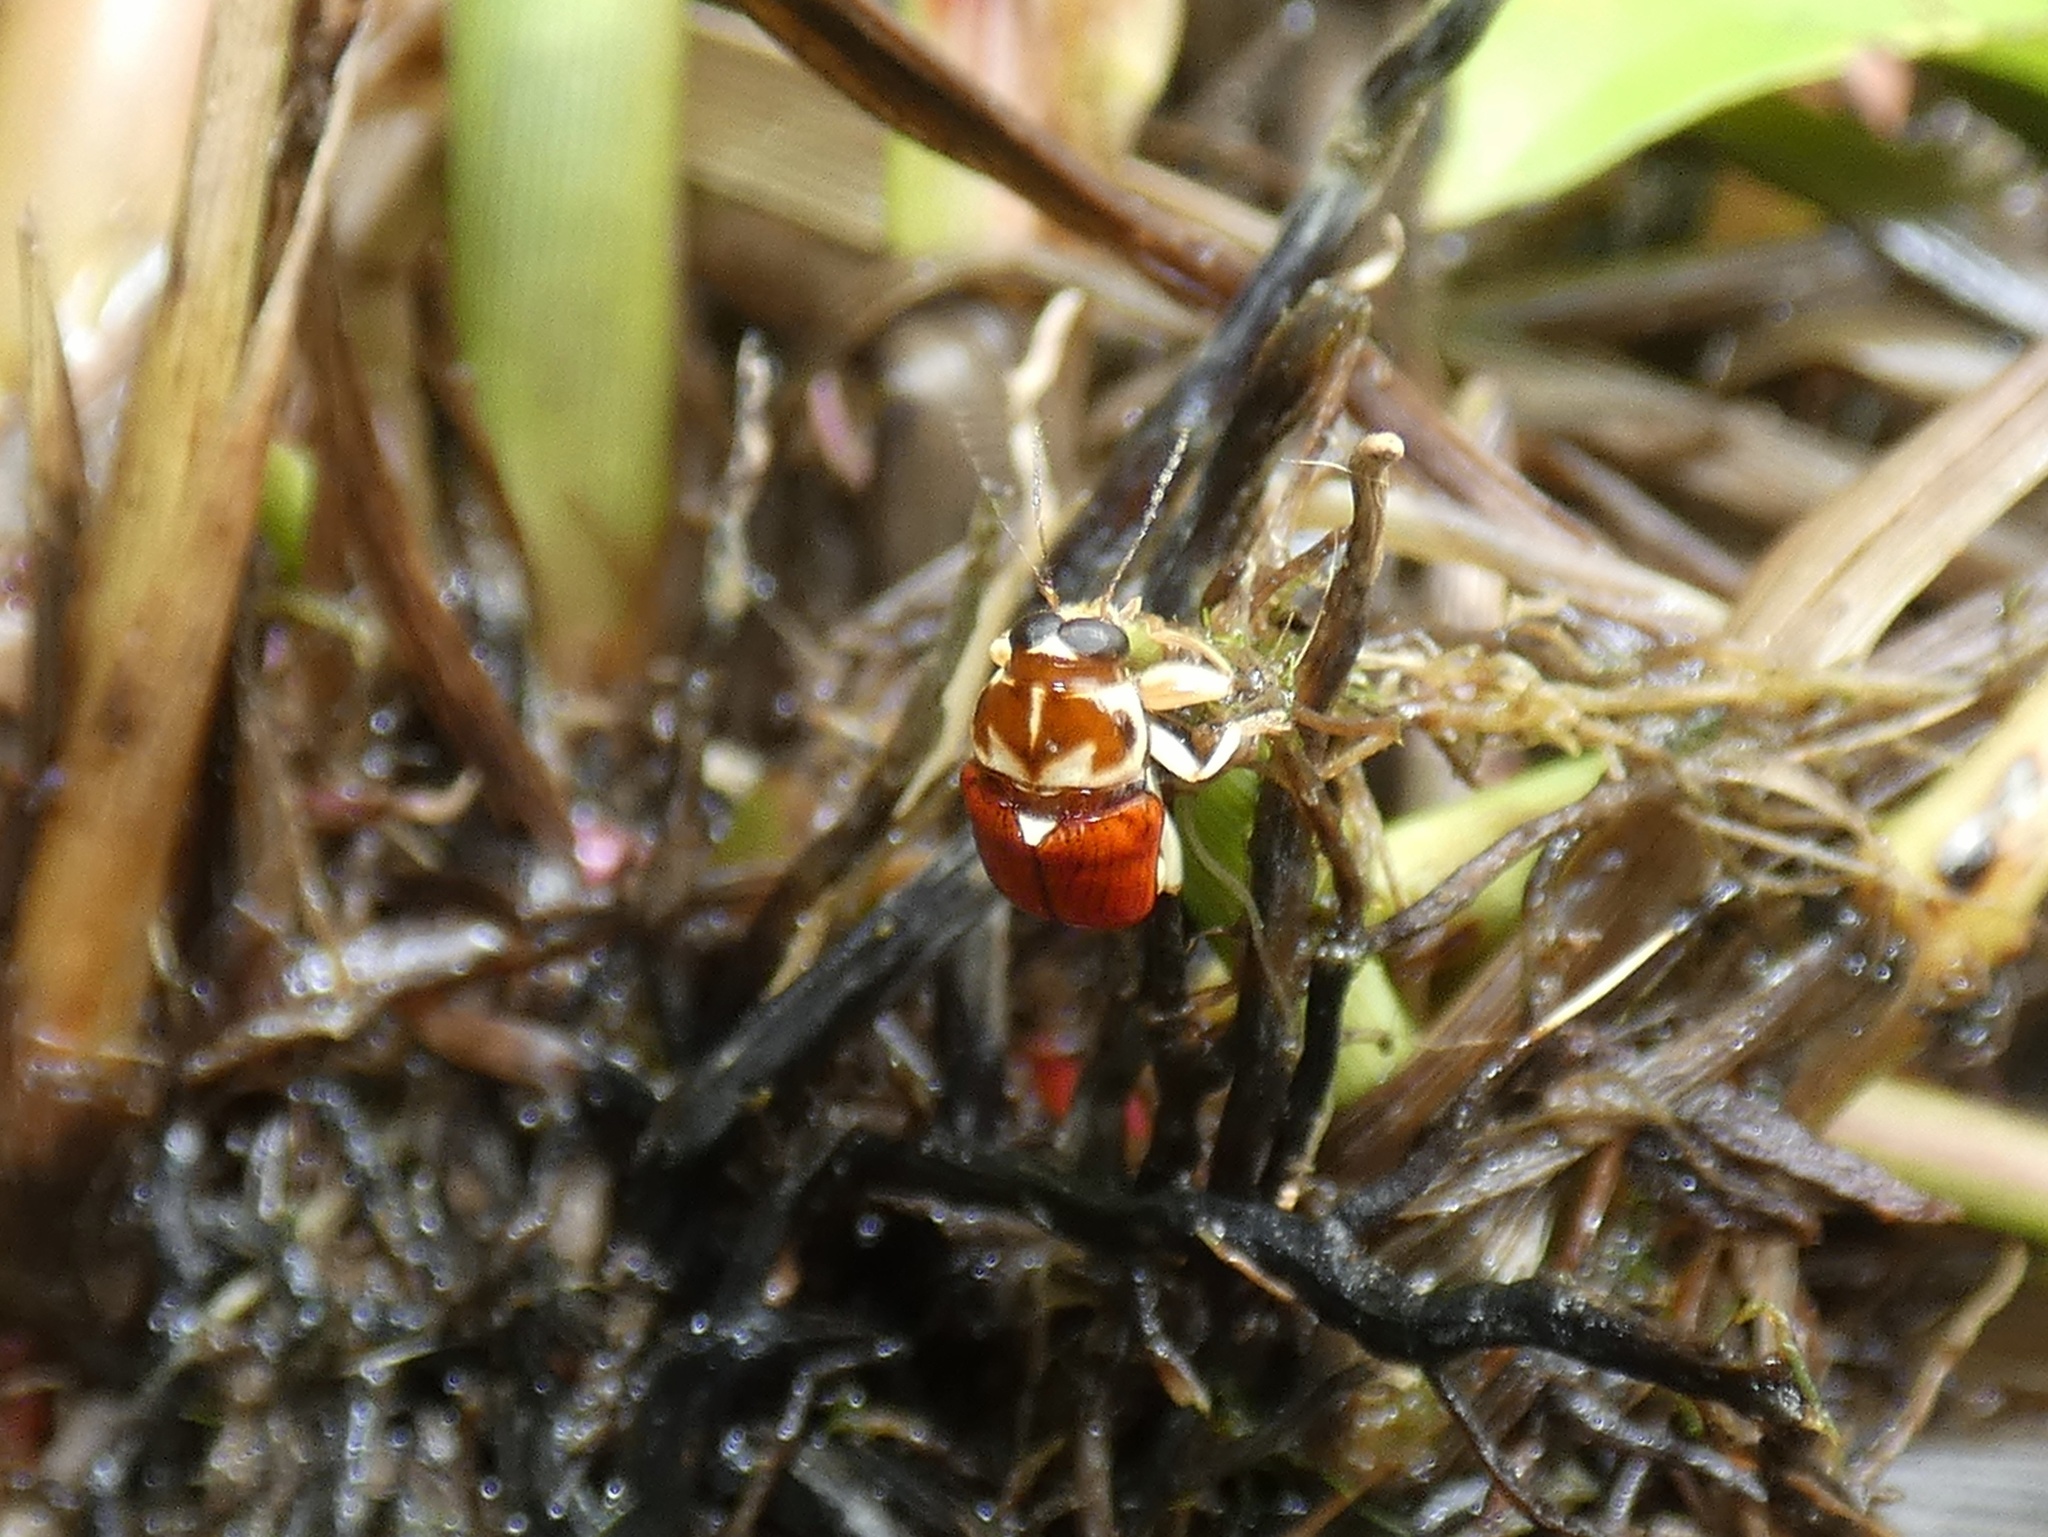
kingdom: Animalia
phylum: Arthropoda
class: Insecta
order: Coleoptera
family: Chrysomelidae
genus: Griburius
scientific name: Griburius
